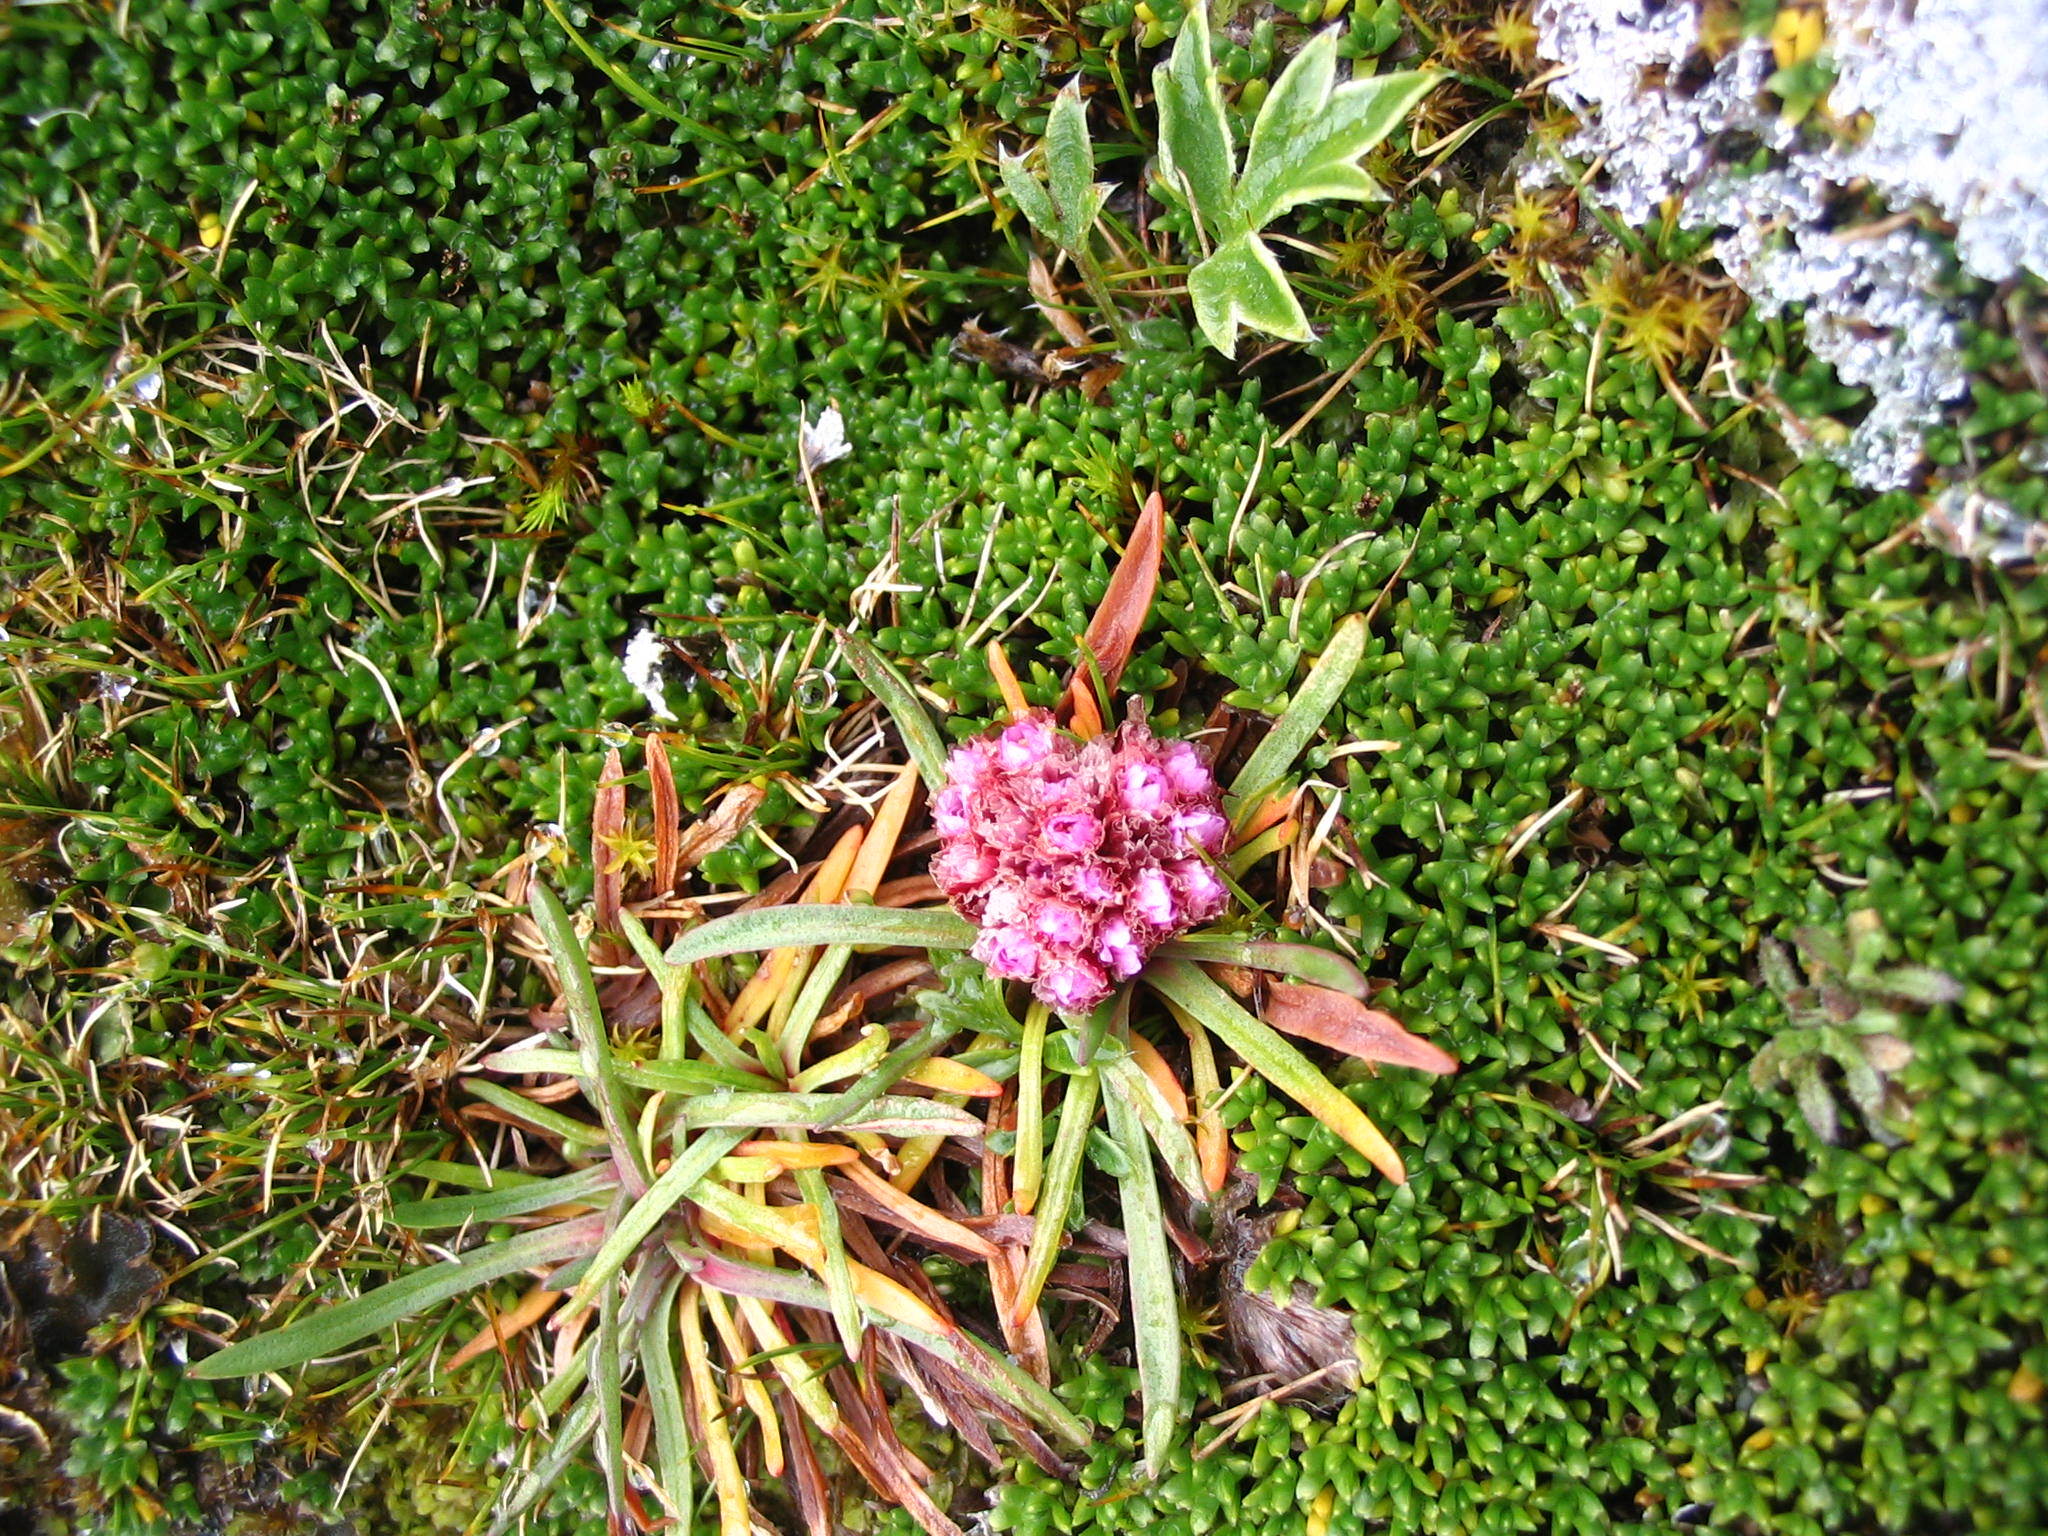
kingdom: Plantae
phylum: Tracheophyta
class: Magnoliopsida
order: Caryophyllales
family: Plumbaginaceae
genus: Armeria
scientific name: Armeria curvifolia
